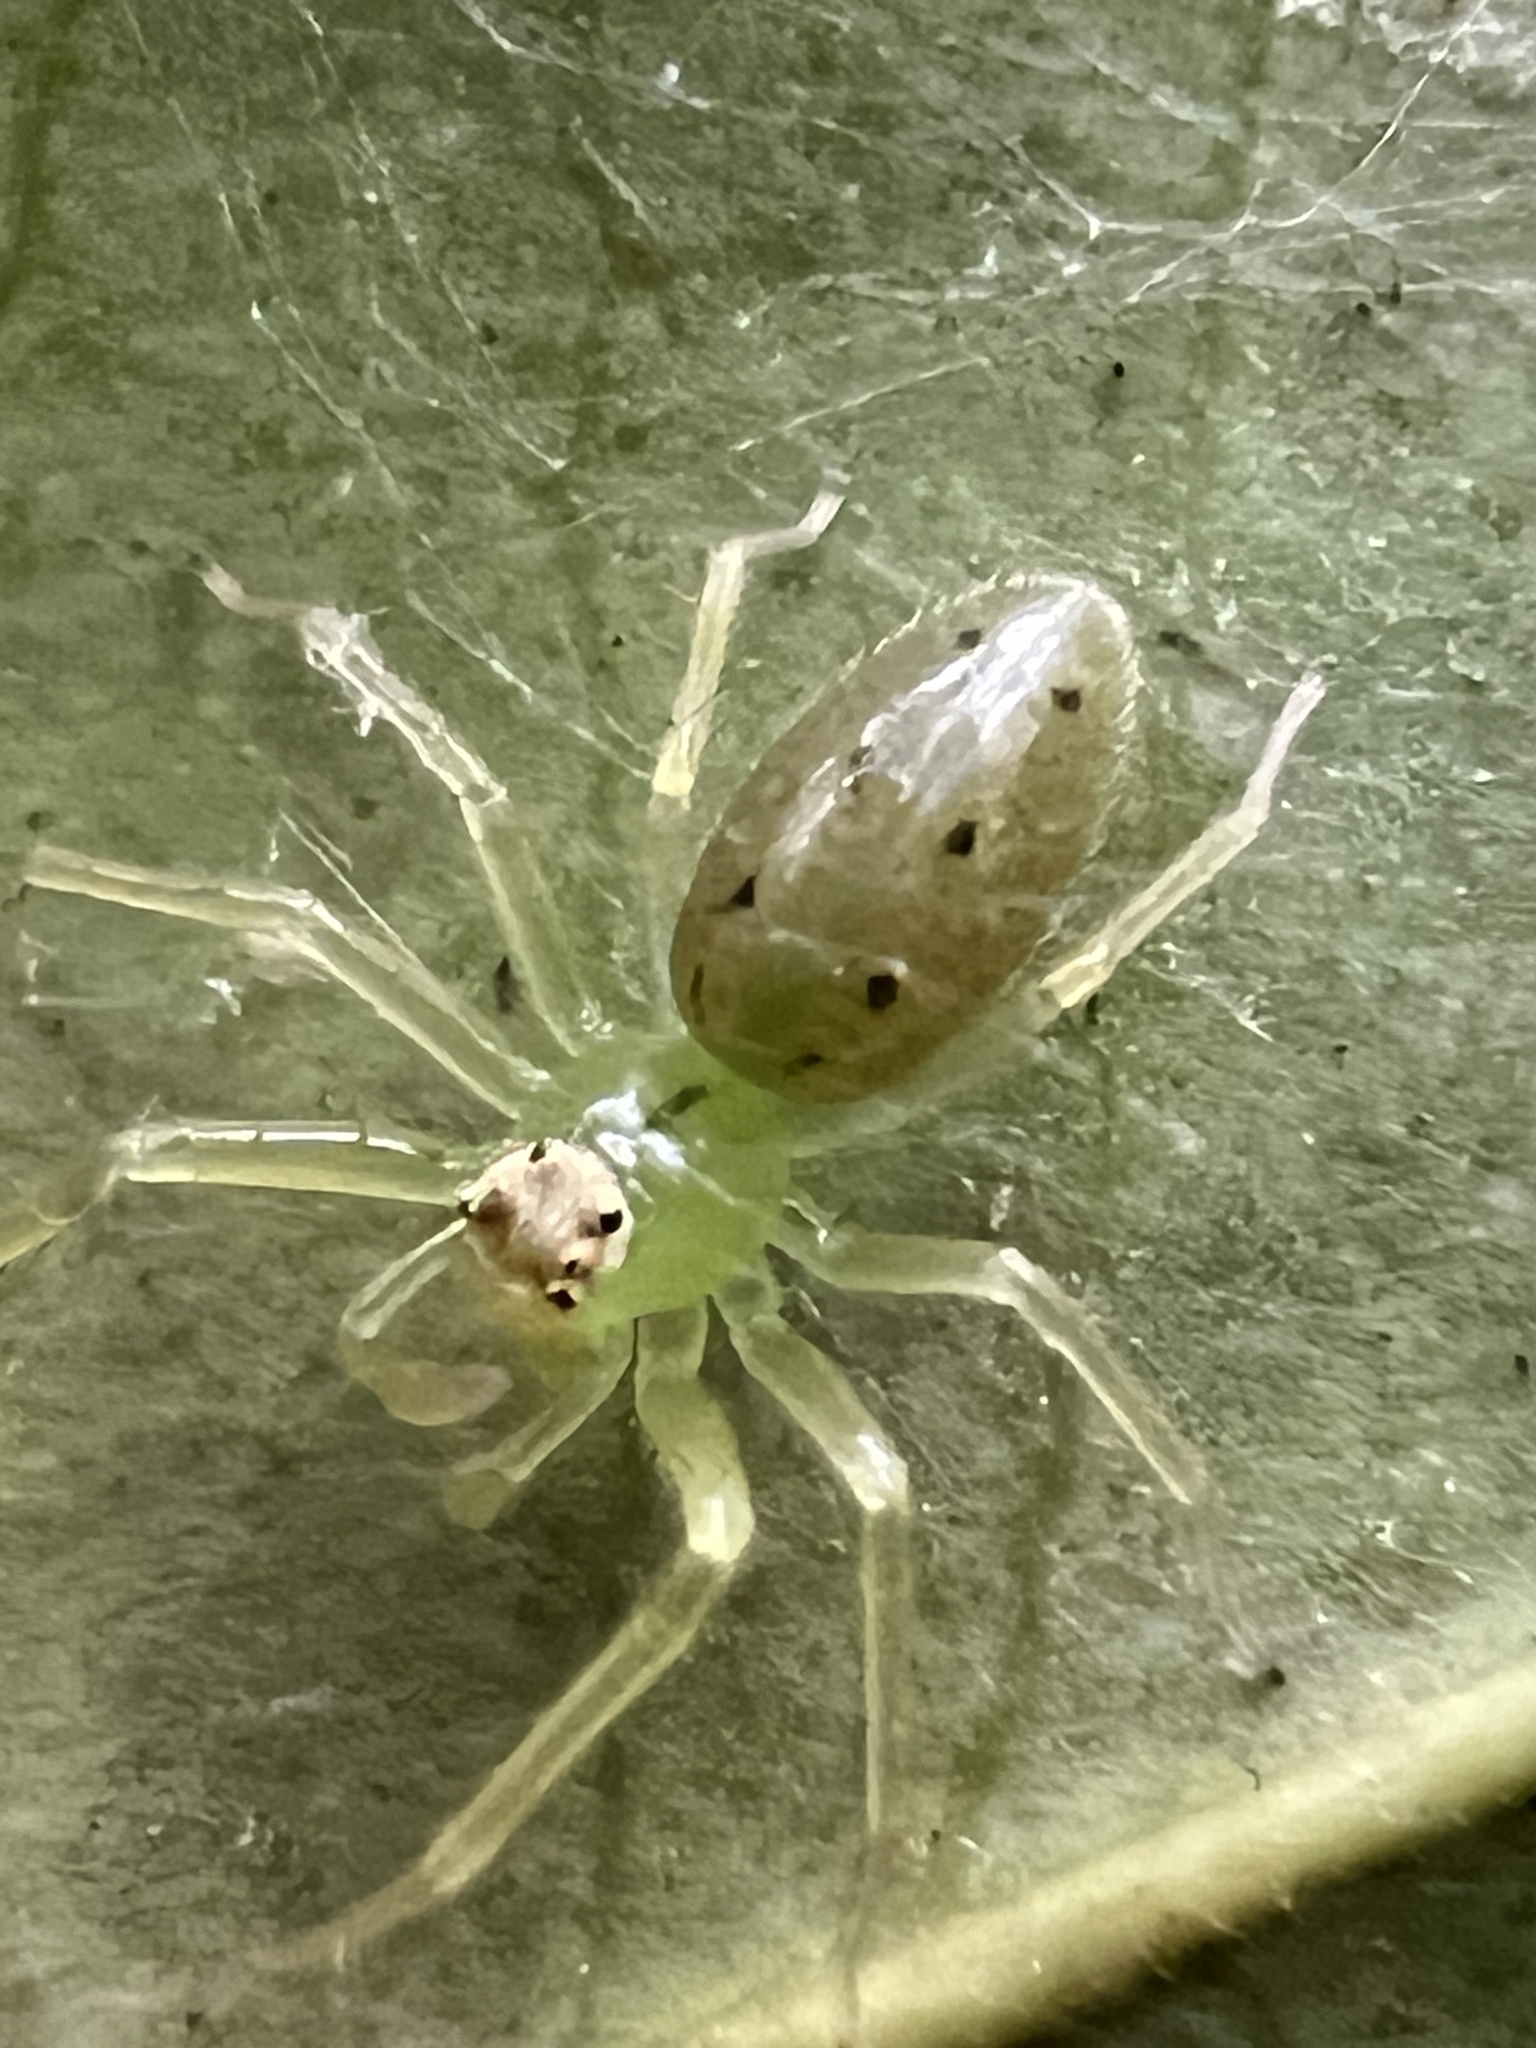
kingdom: Animalia
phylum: Arthropoda
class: Arachnida
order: Araneae
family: Salticidae
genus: Lyssomanes
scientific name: Lyssomanes viridis
